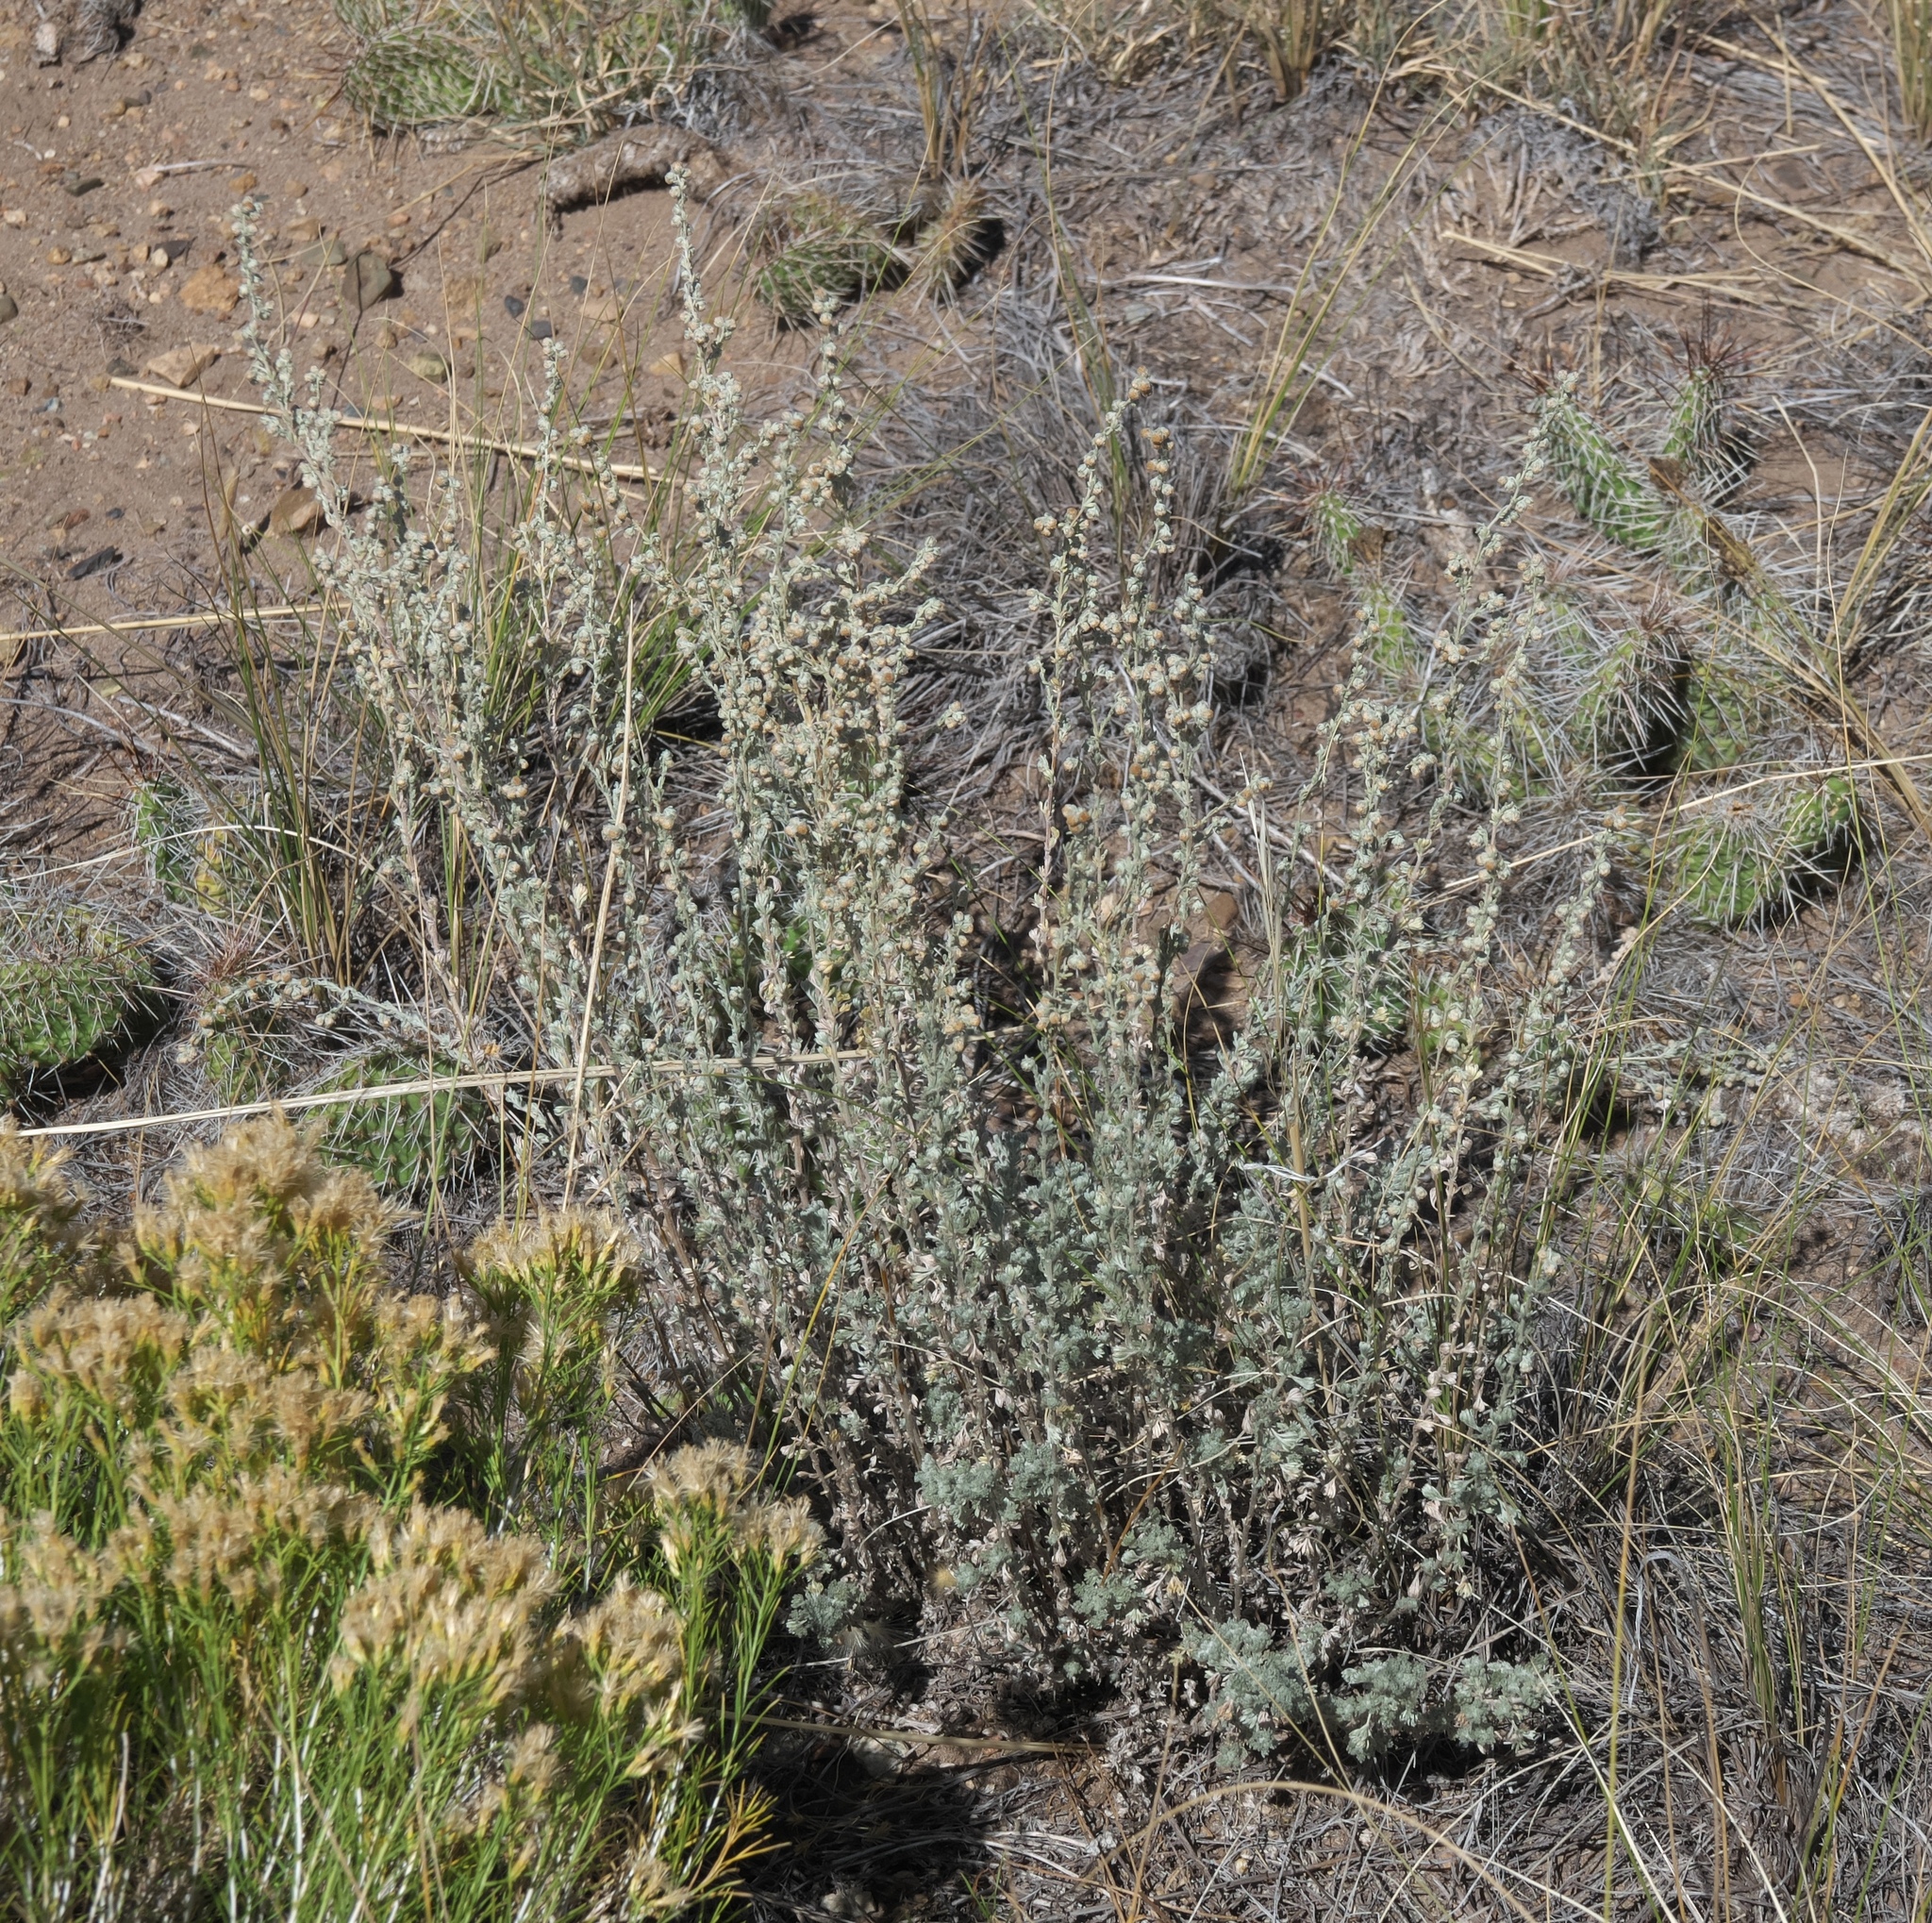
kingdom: Plantae
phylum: Tracheophyta
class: Magnoliopsida
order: Asterales
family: Asteraceae
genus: Artemisia
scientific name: Artemisia frigida
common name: Prairie sagewort
